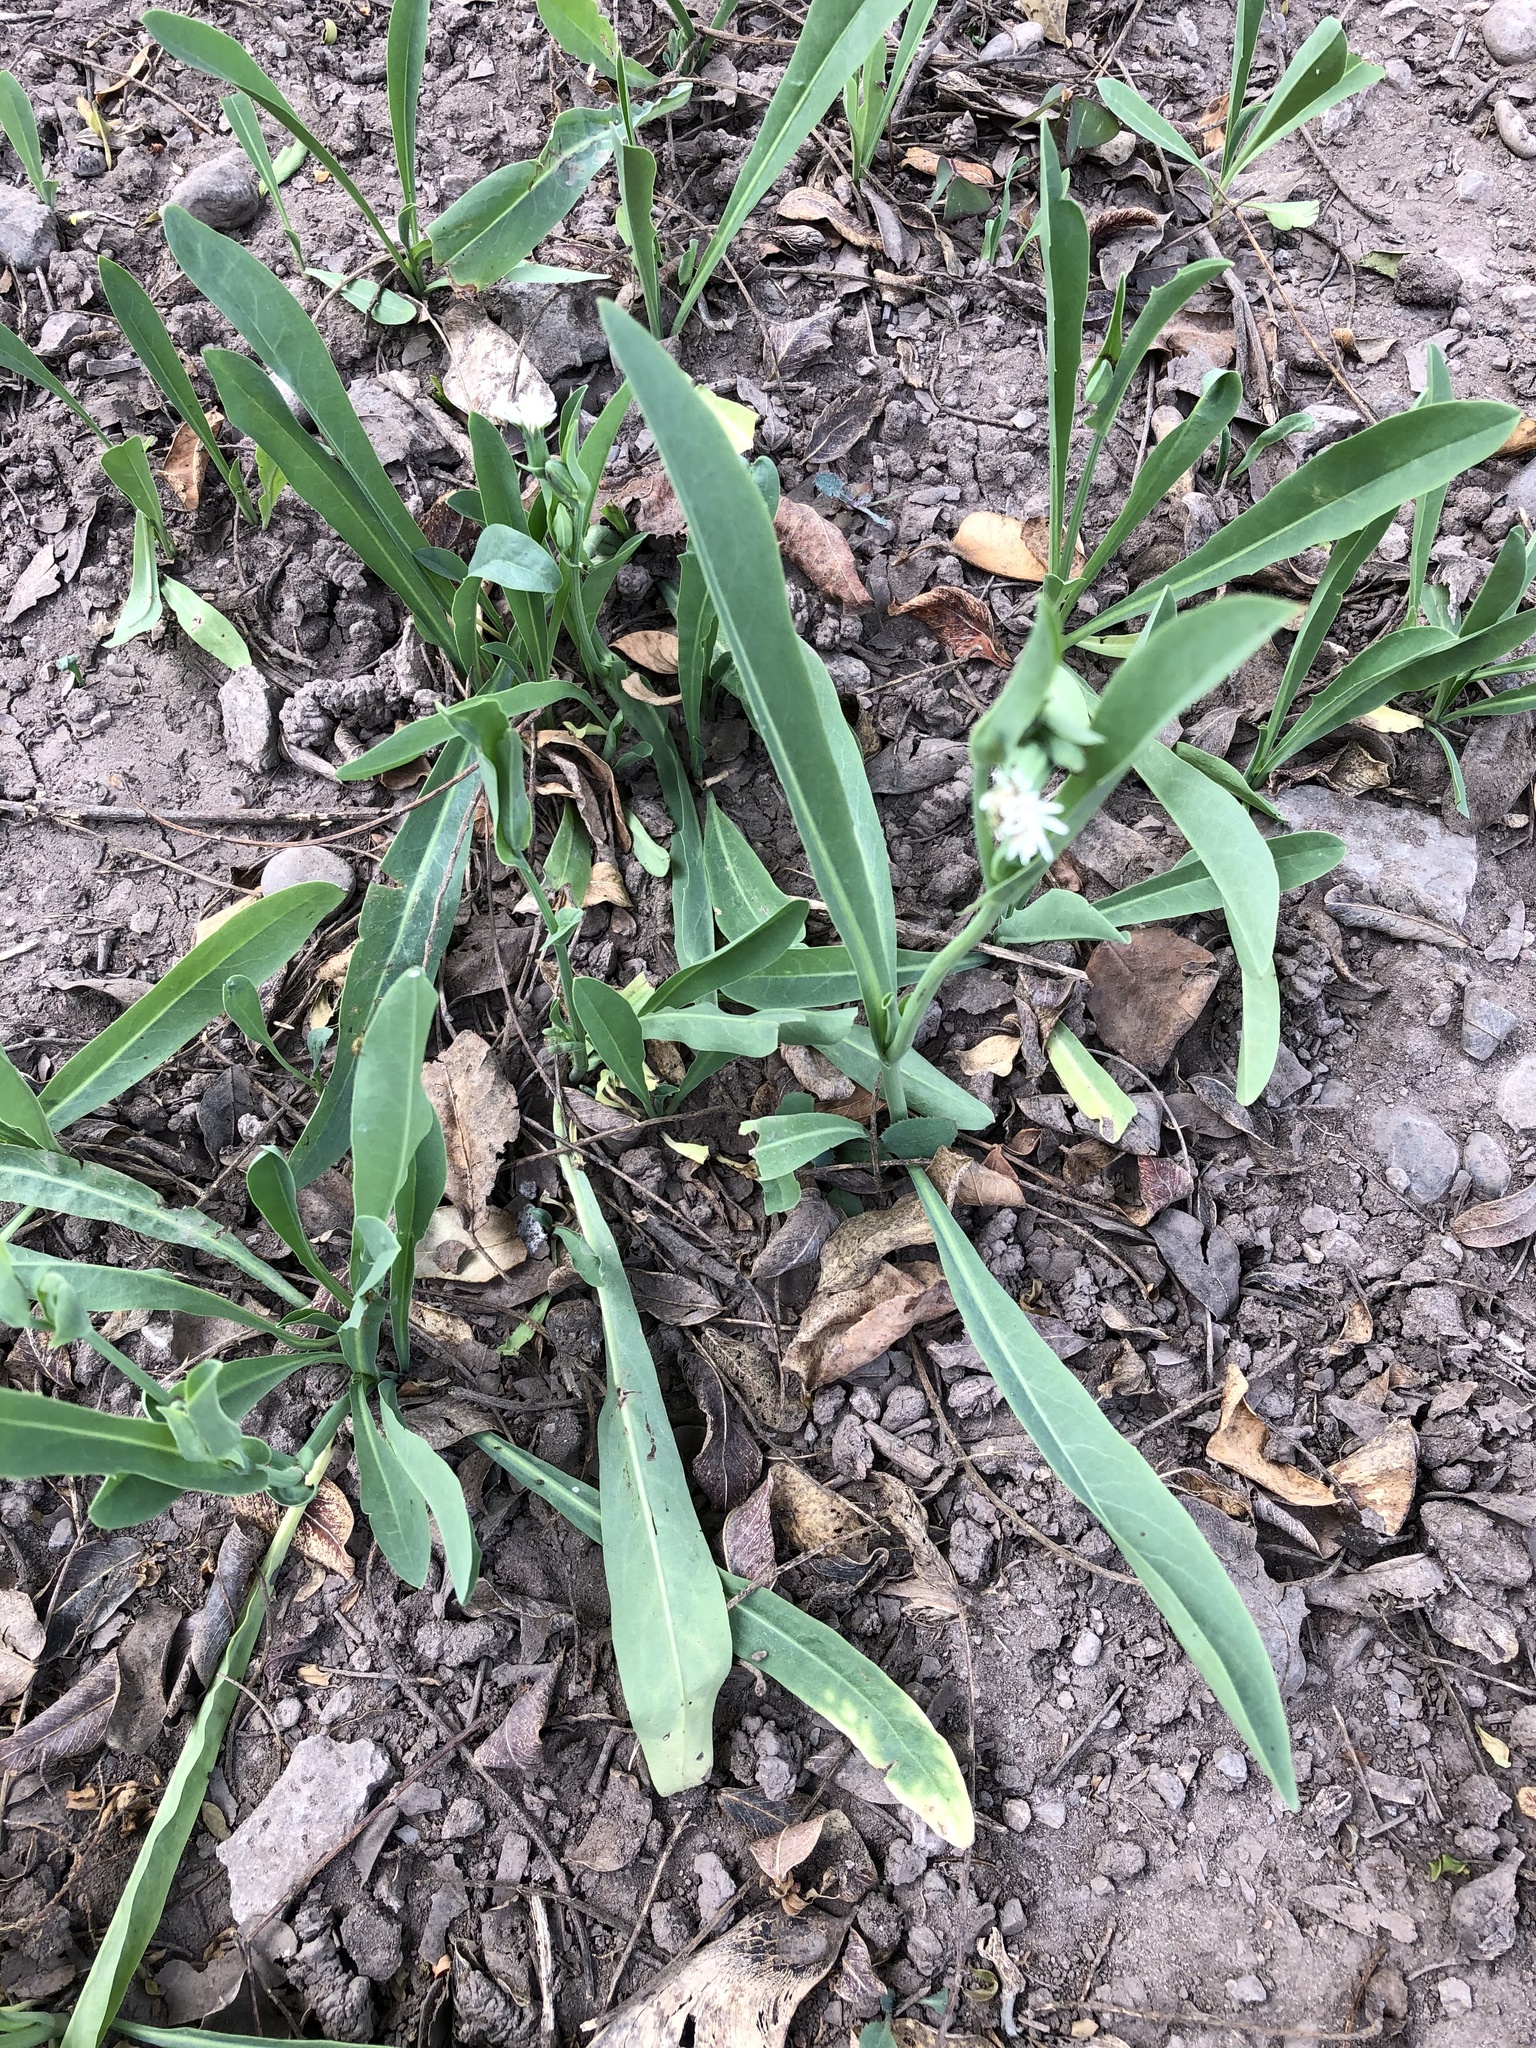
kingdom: Plantae
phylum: Tracheophyta
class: Magnoliopsida
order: Asterales
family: Asteraceae
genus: Picrosia
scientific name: Picrosia longifolia
